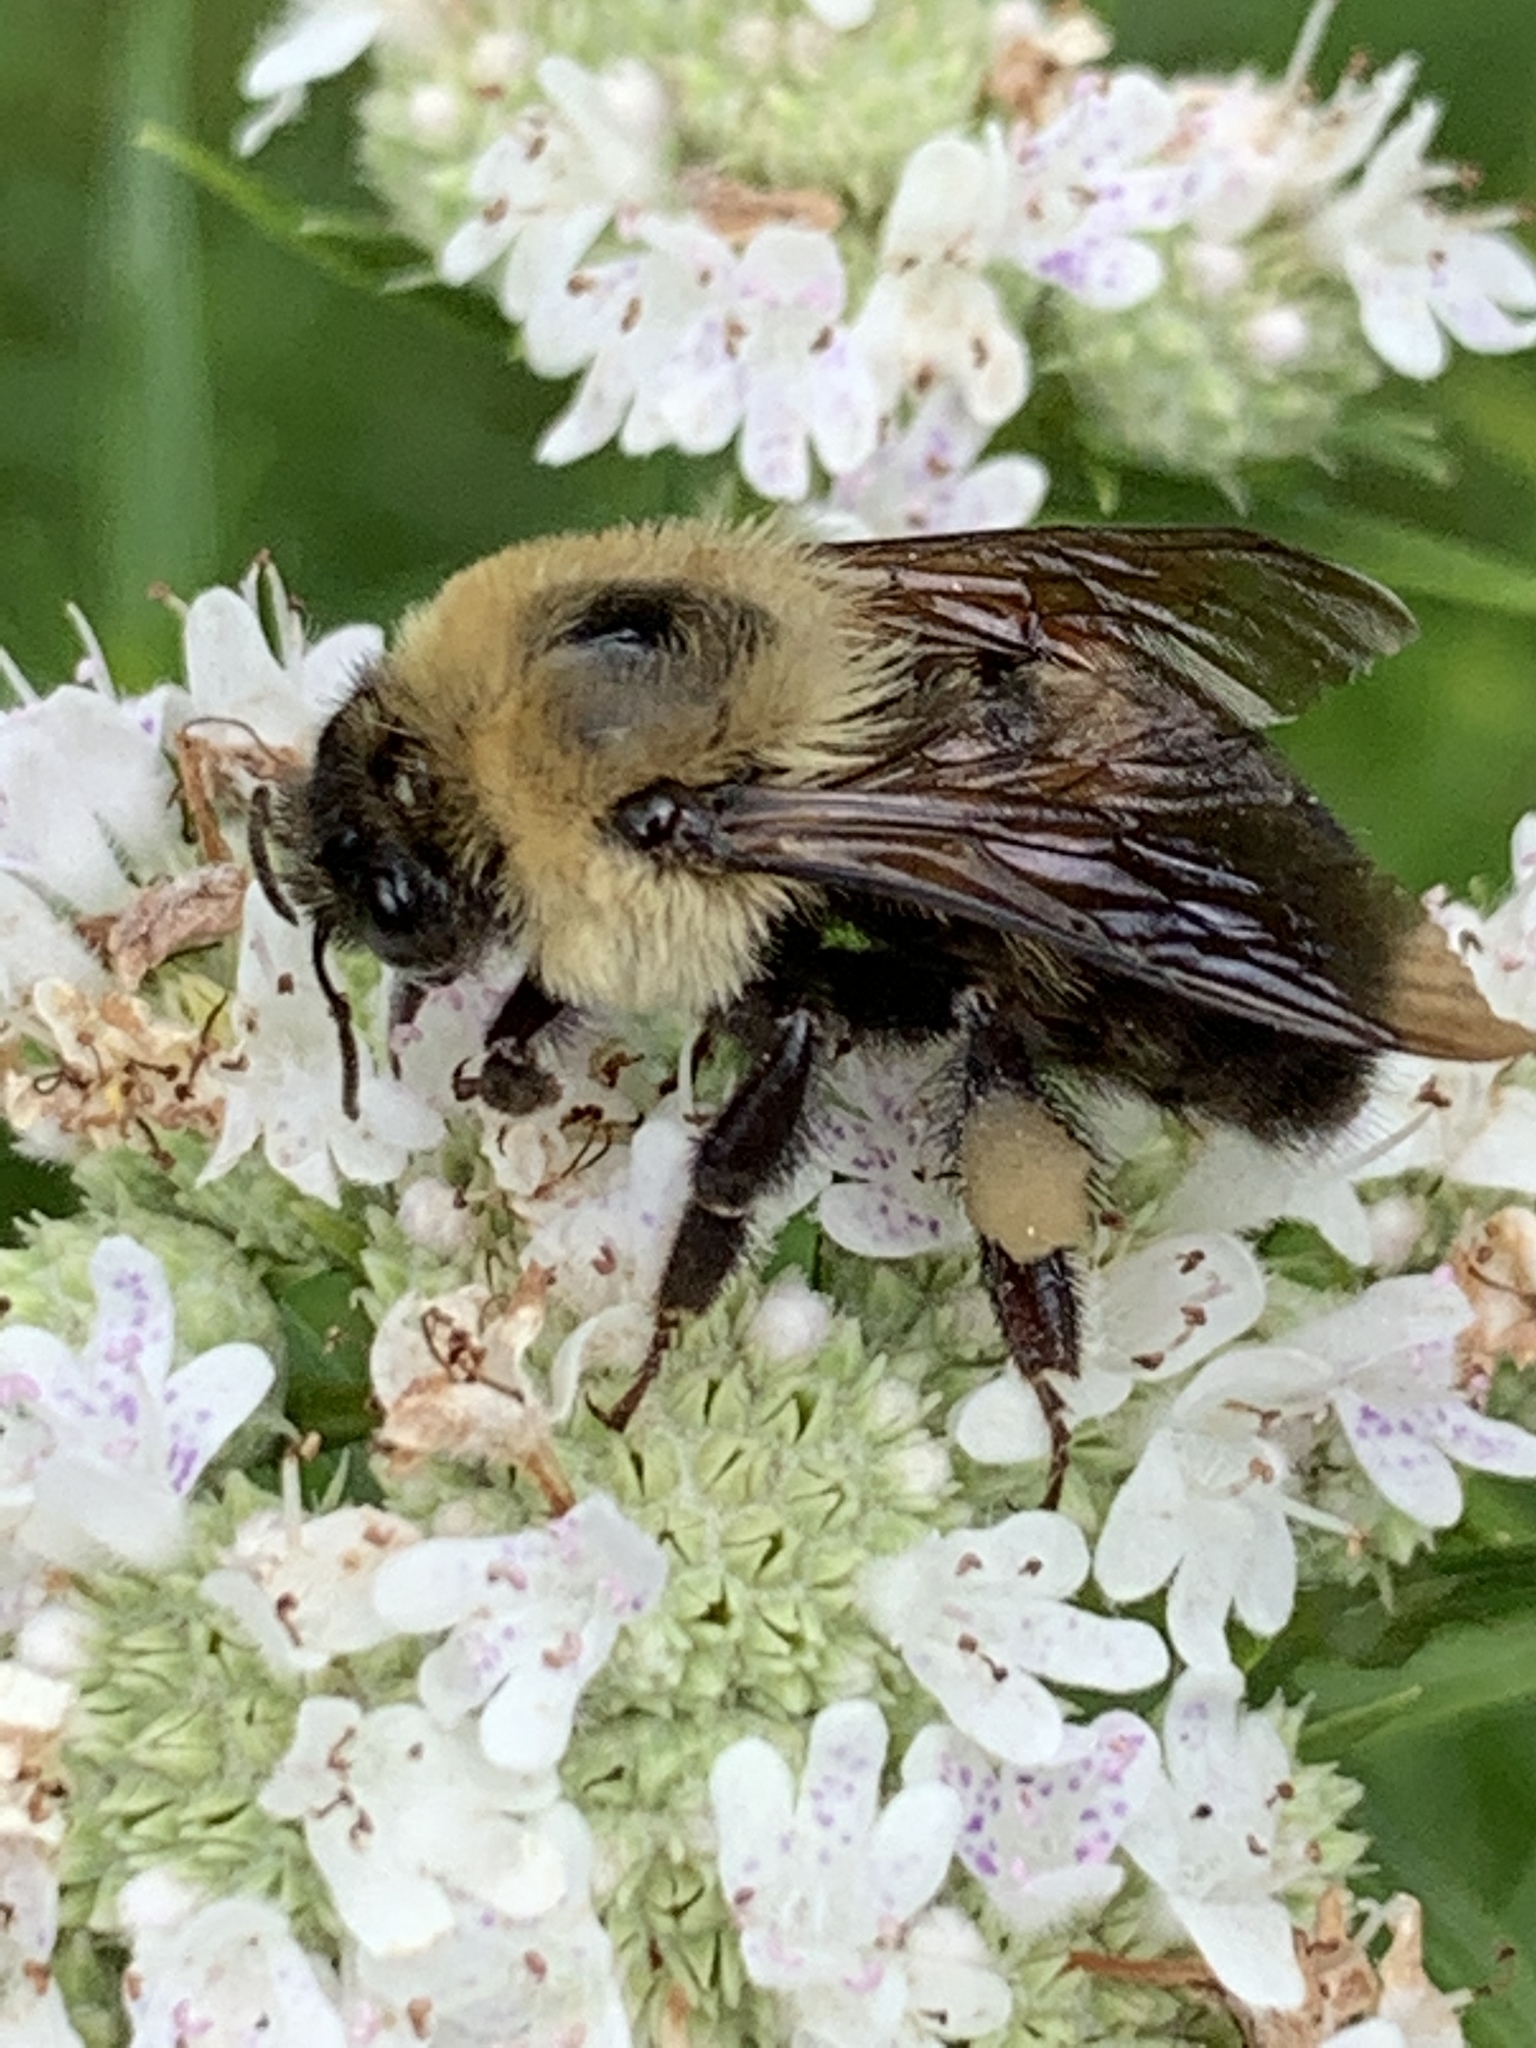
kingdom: Animalia
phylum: Arthropoda
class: Insecta
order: Hymenoptera
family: Apidae
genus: Bombus
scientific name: Bombus griseocollis
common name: Brown-belted bumble bee
